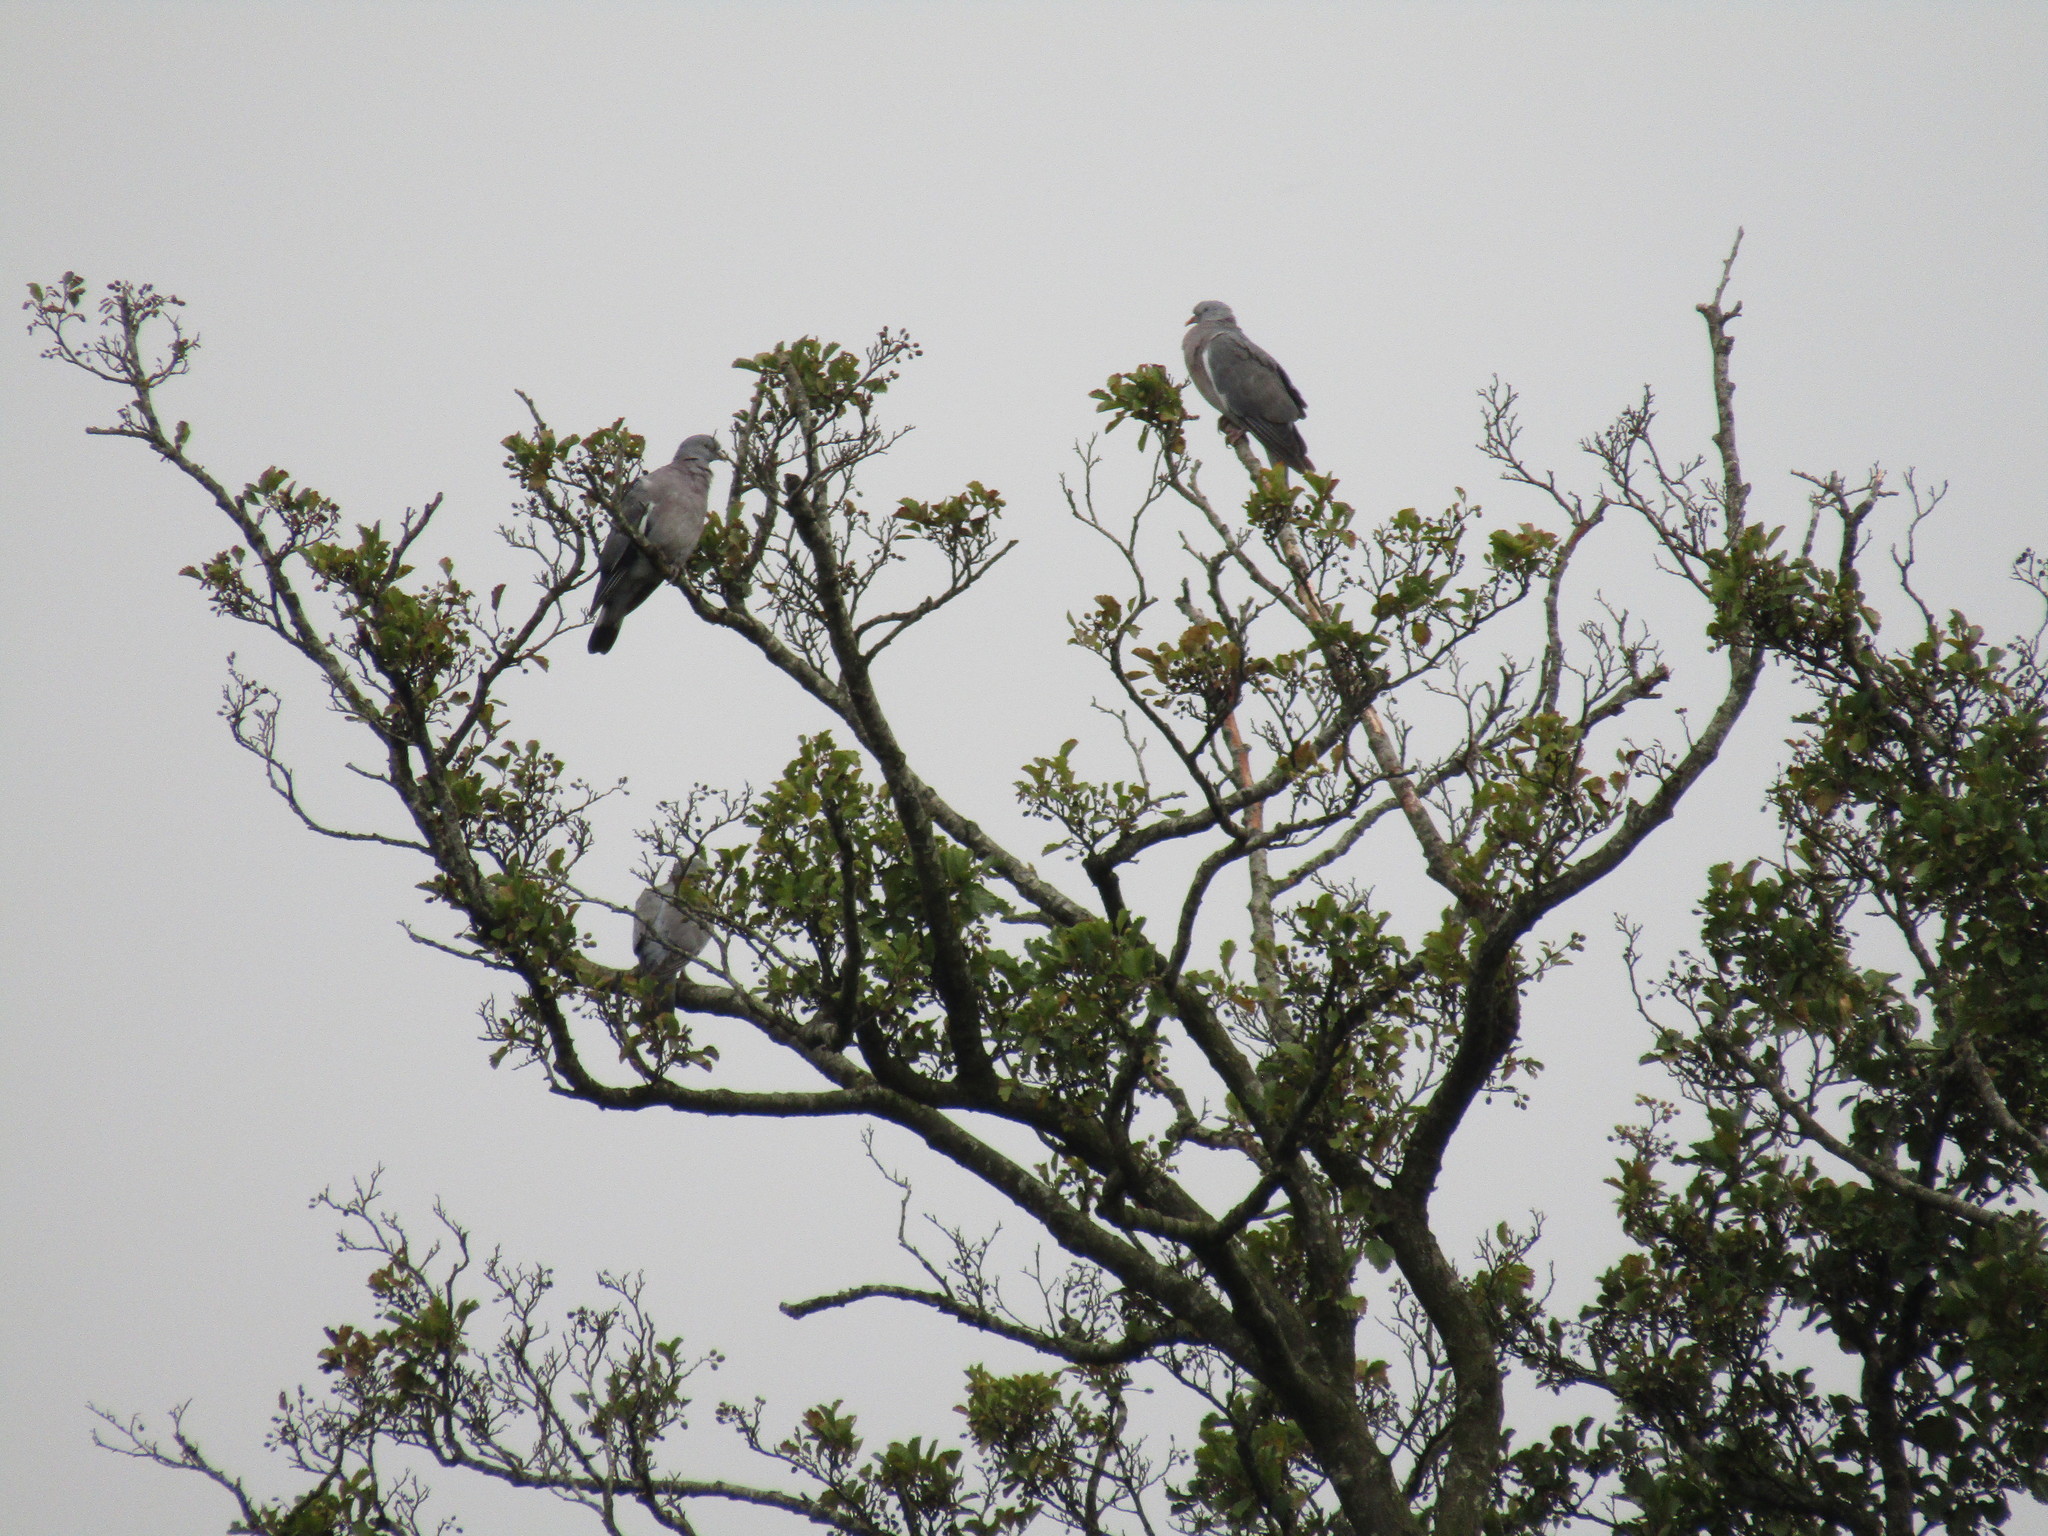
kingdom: Animalia
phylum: Chordata
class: Aves
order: Columbiformes
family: Columbidae
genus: Columba
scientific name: Columba palumbus
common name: Common wood pigeon
